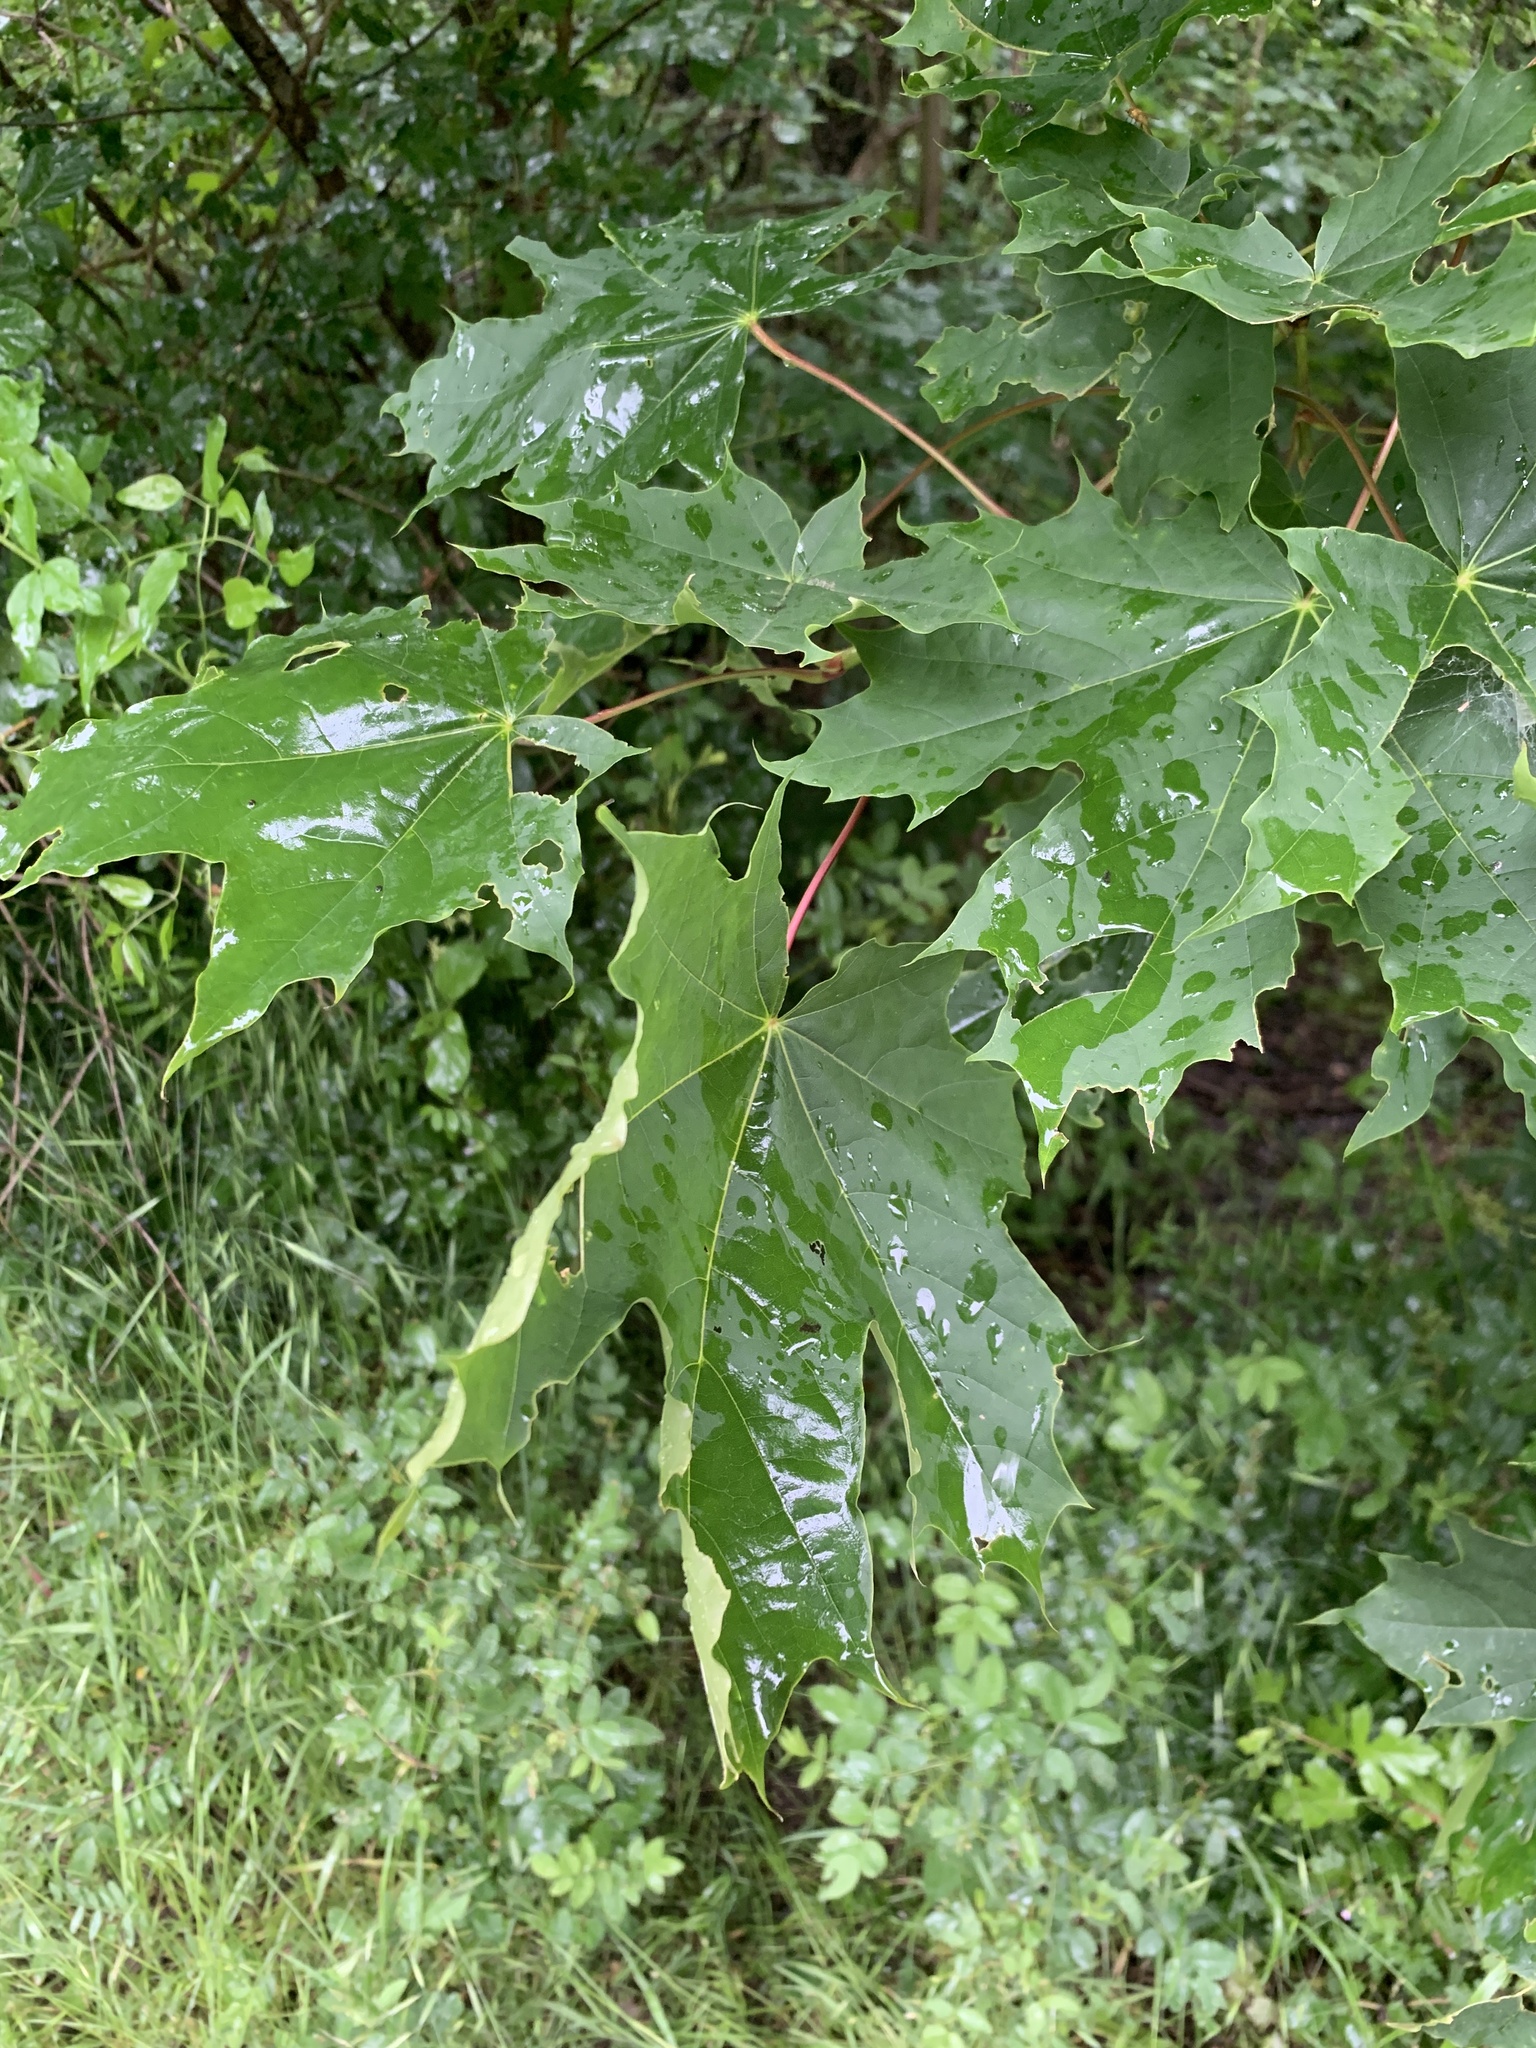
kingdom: Plantae
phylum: Tracheophyta
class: Magnoliopsida
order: Sapindales
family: Sapindaceae
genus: Acer
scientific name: Acer platanoides
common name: Norway maple
